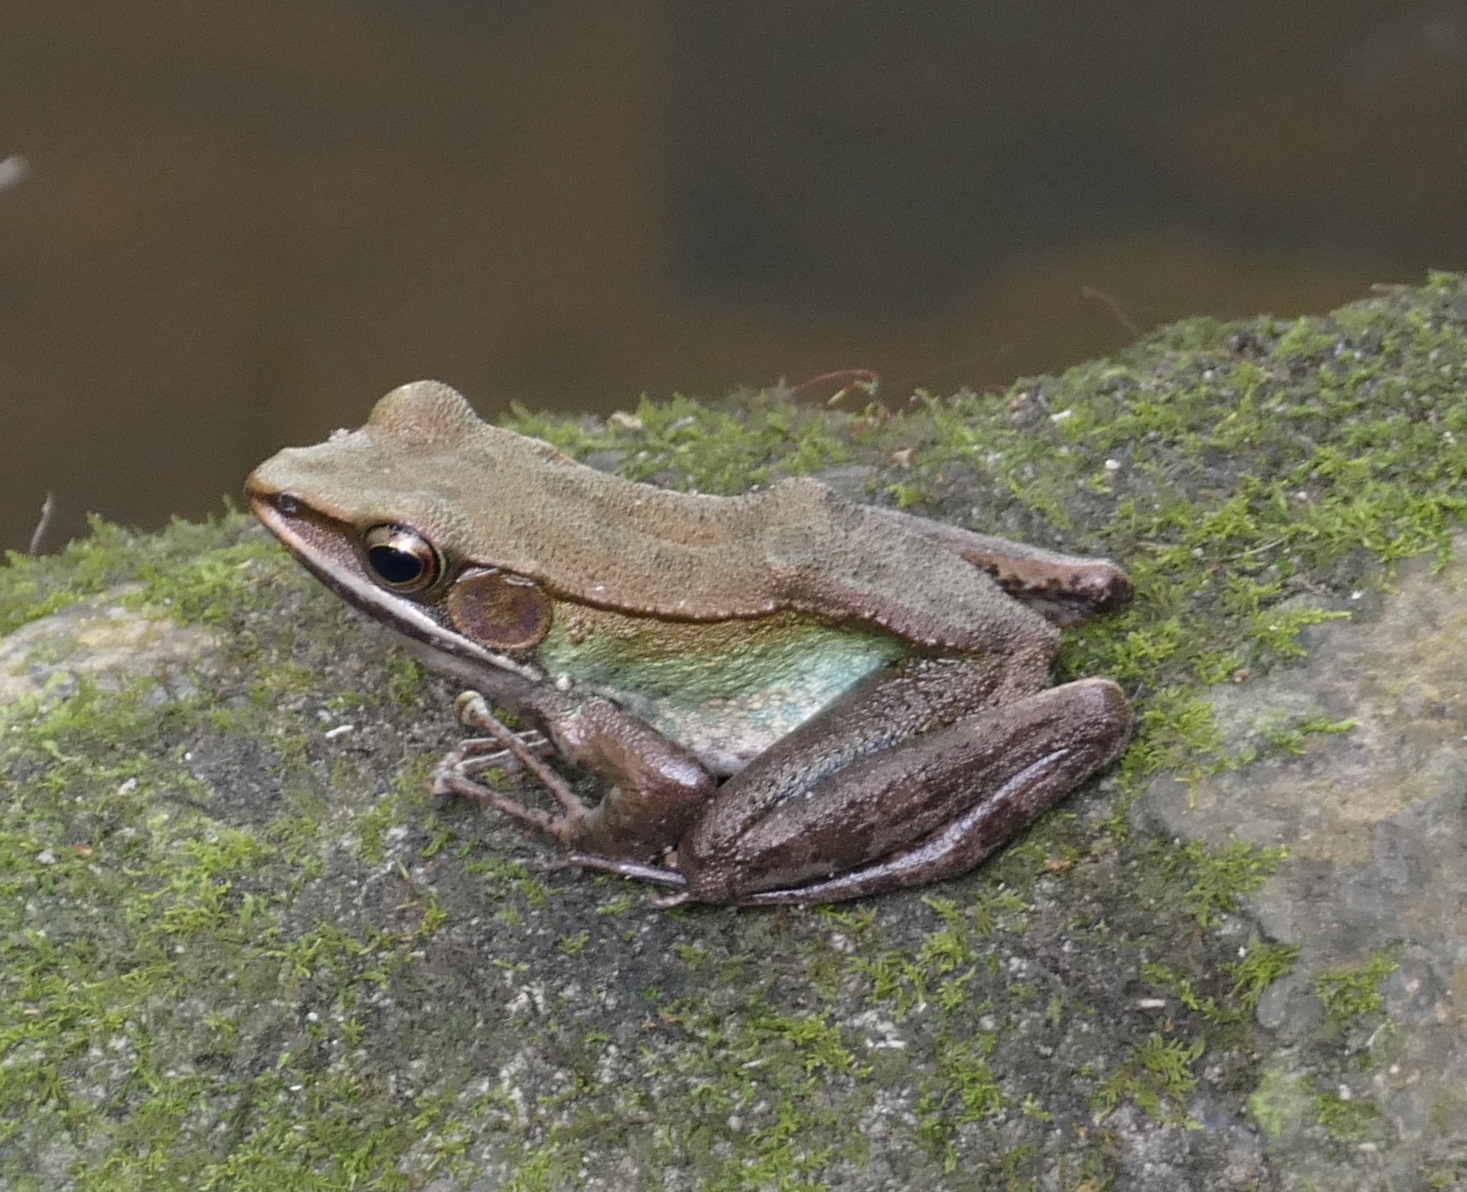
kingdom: Animalia
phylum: Chordata
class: Amphibia
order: Anura
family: Ranidae
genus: Amnirana
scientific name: Amnirana parva
